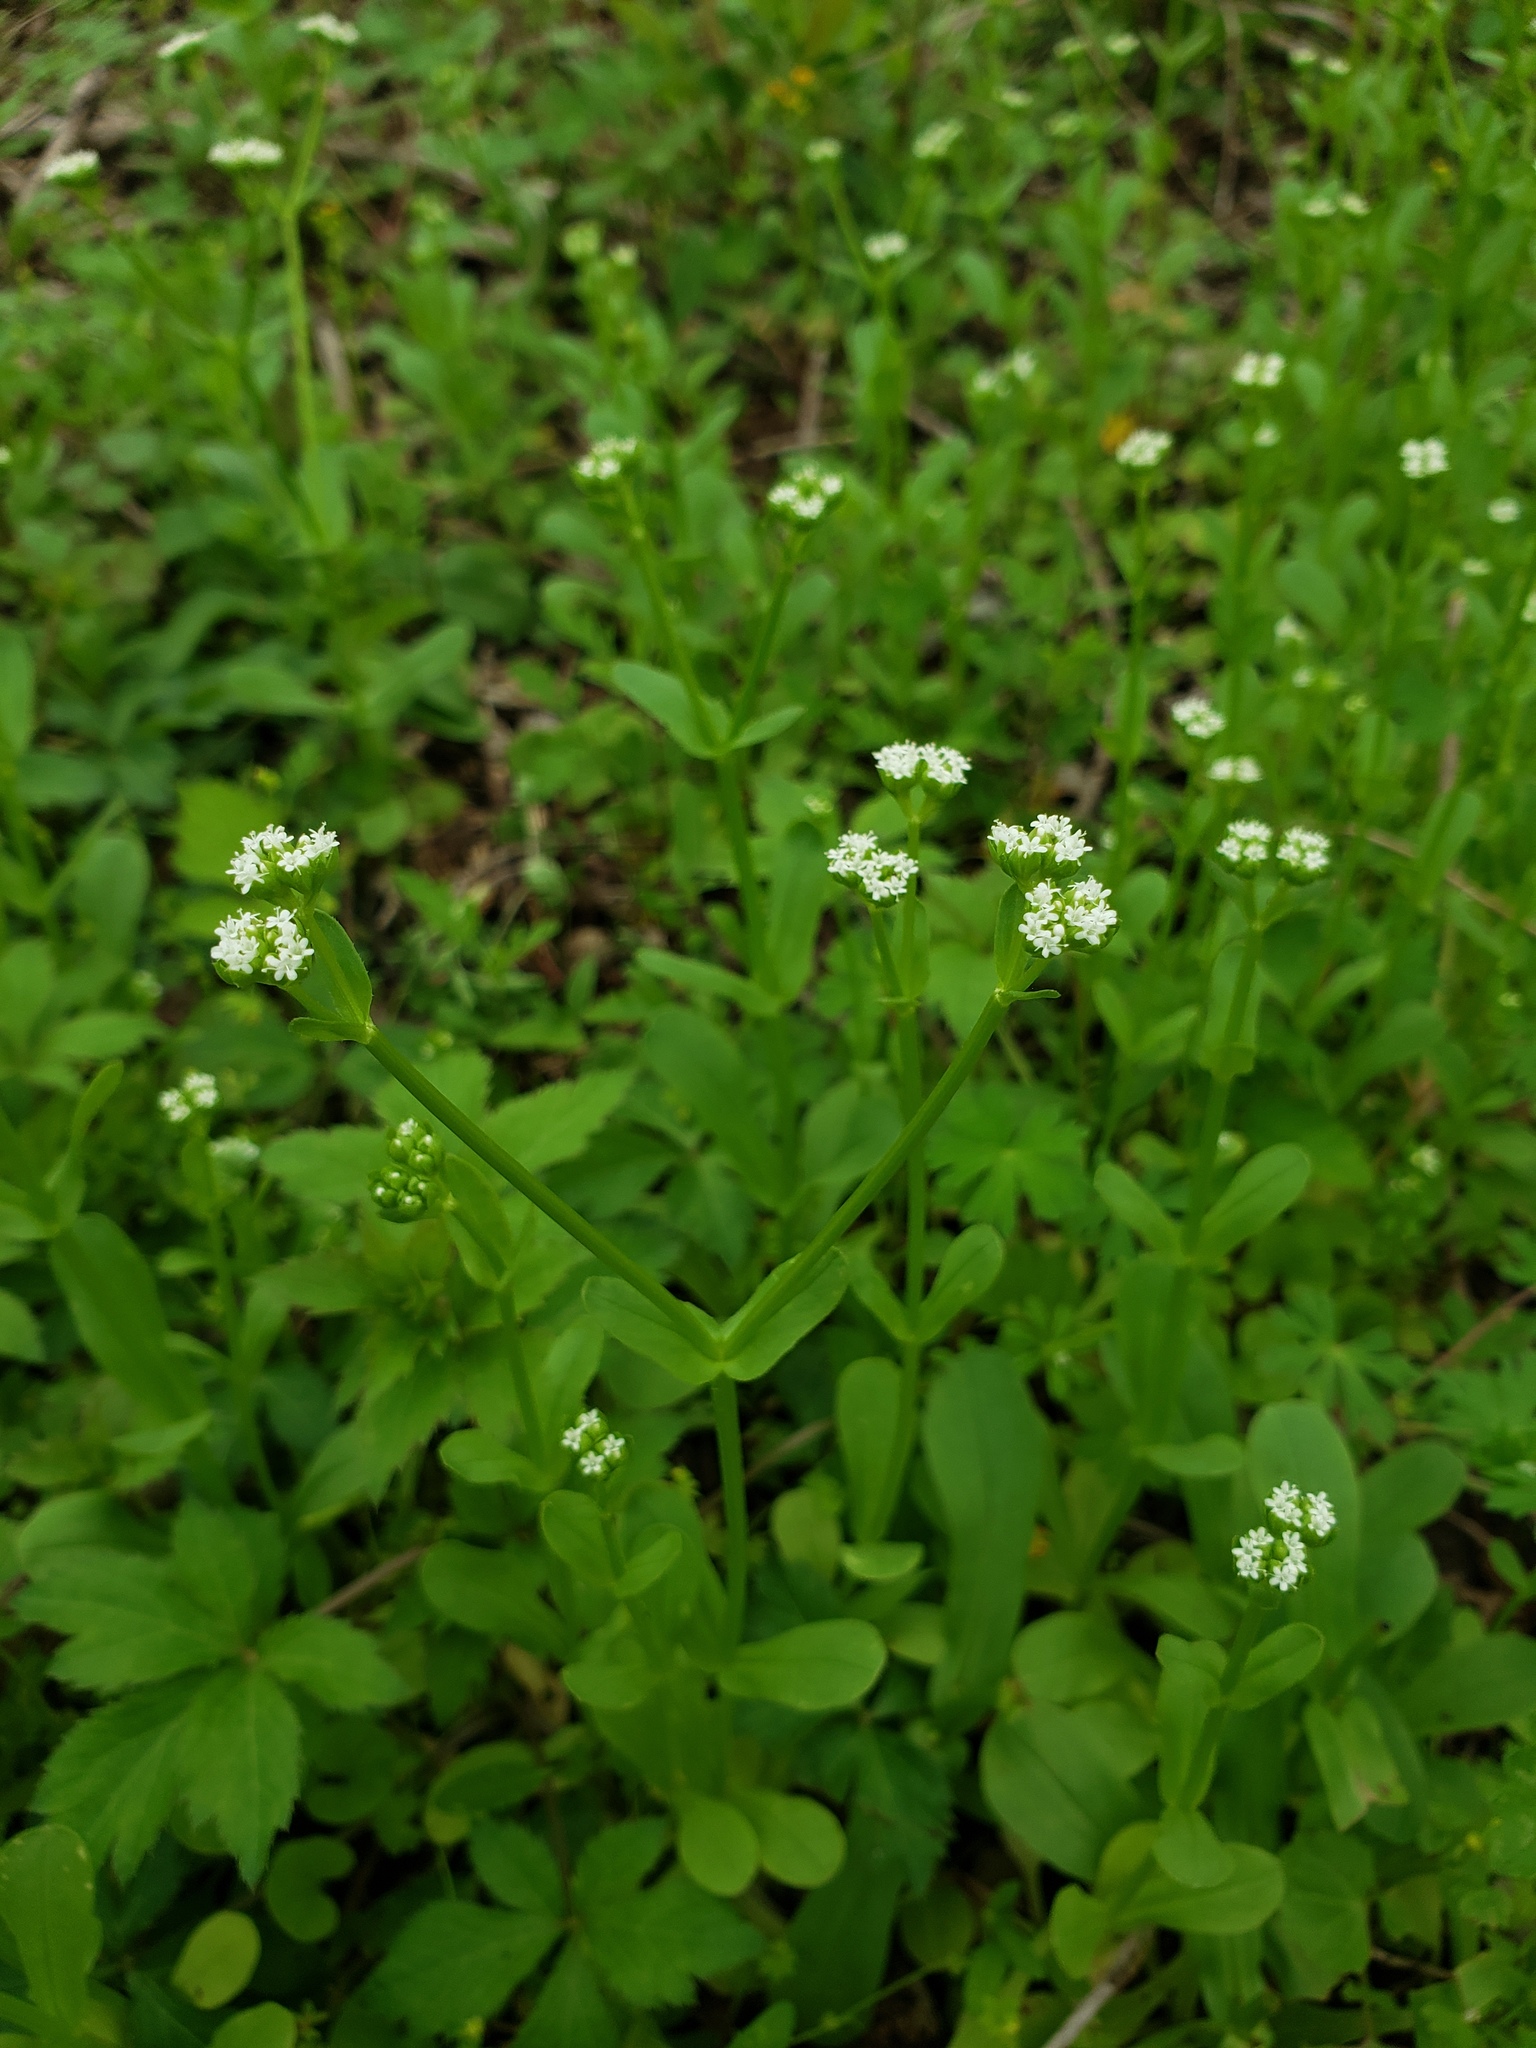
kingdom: Plantae
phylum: Tracheophyta
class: Magnoliopsida
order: Dipsacales
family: Caprifoliaceae
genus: Valerianella
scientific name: Valerianella radiata
